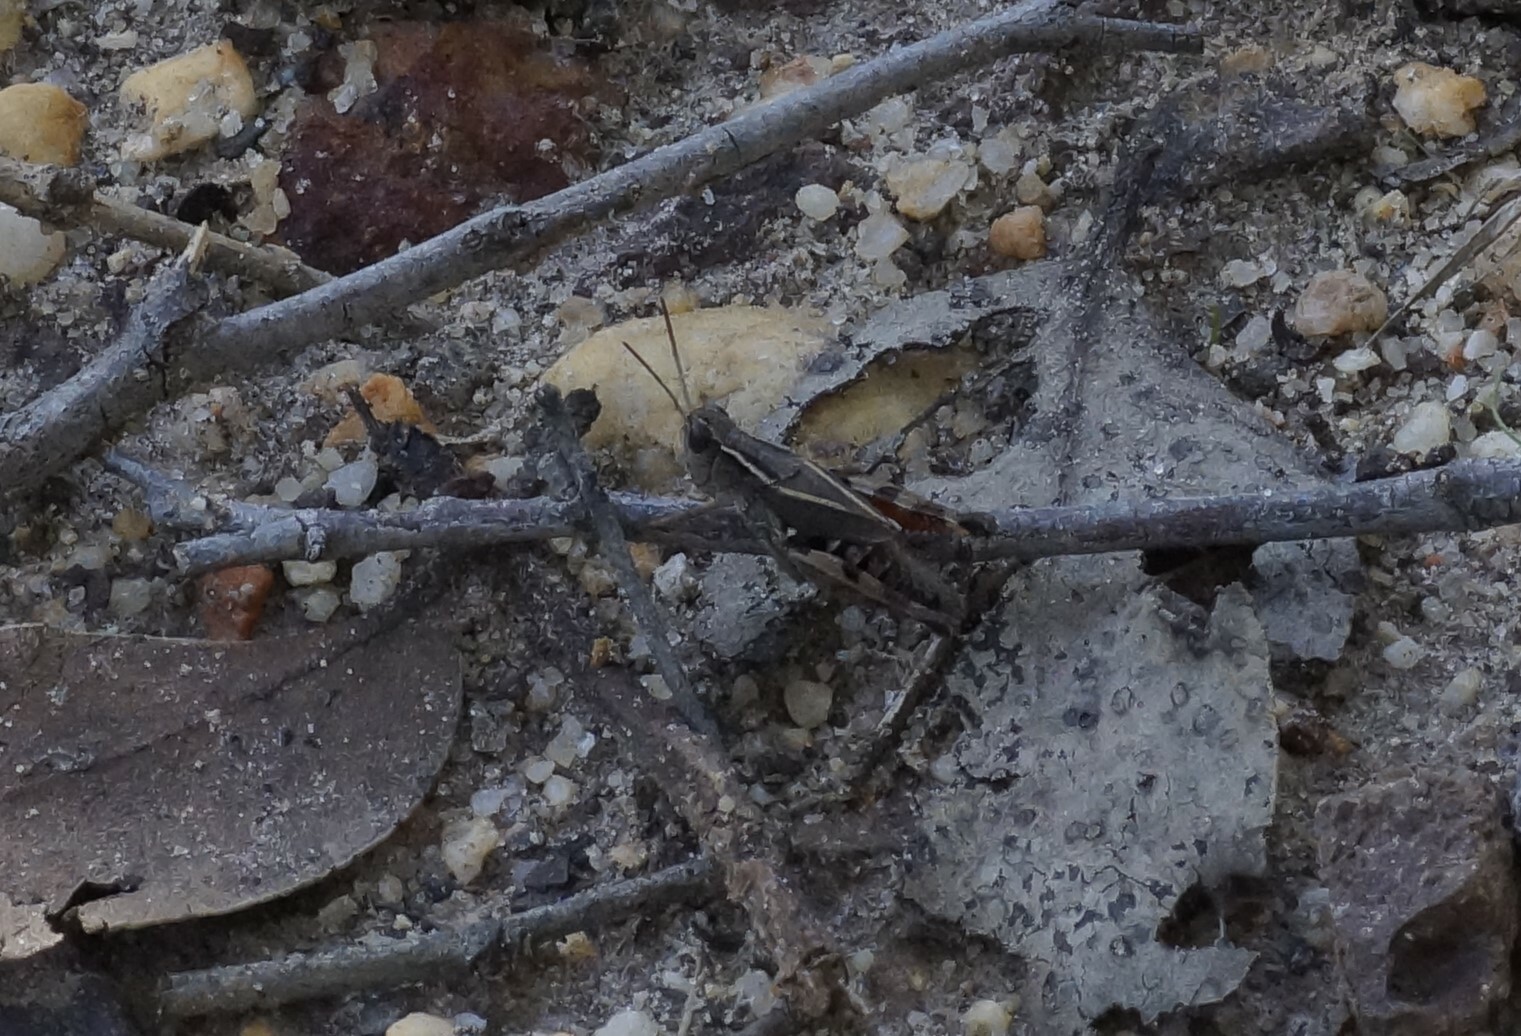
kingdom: Animalia
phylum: Arthropoda
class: Insecta
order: Orthoptera
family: Acrididae
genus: Phaulacridium
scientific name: Phaulacridium vittatum
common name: Wingless grasshopper
